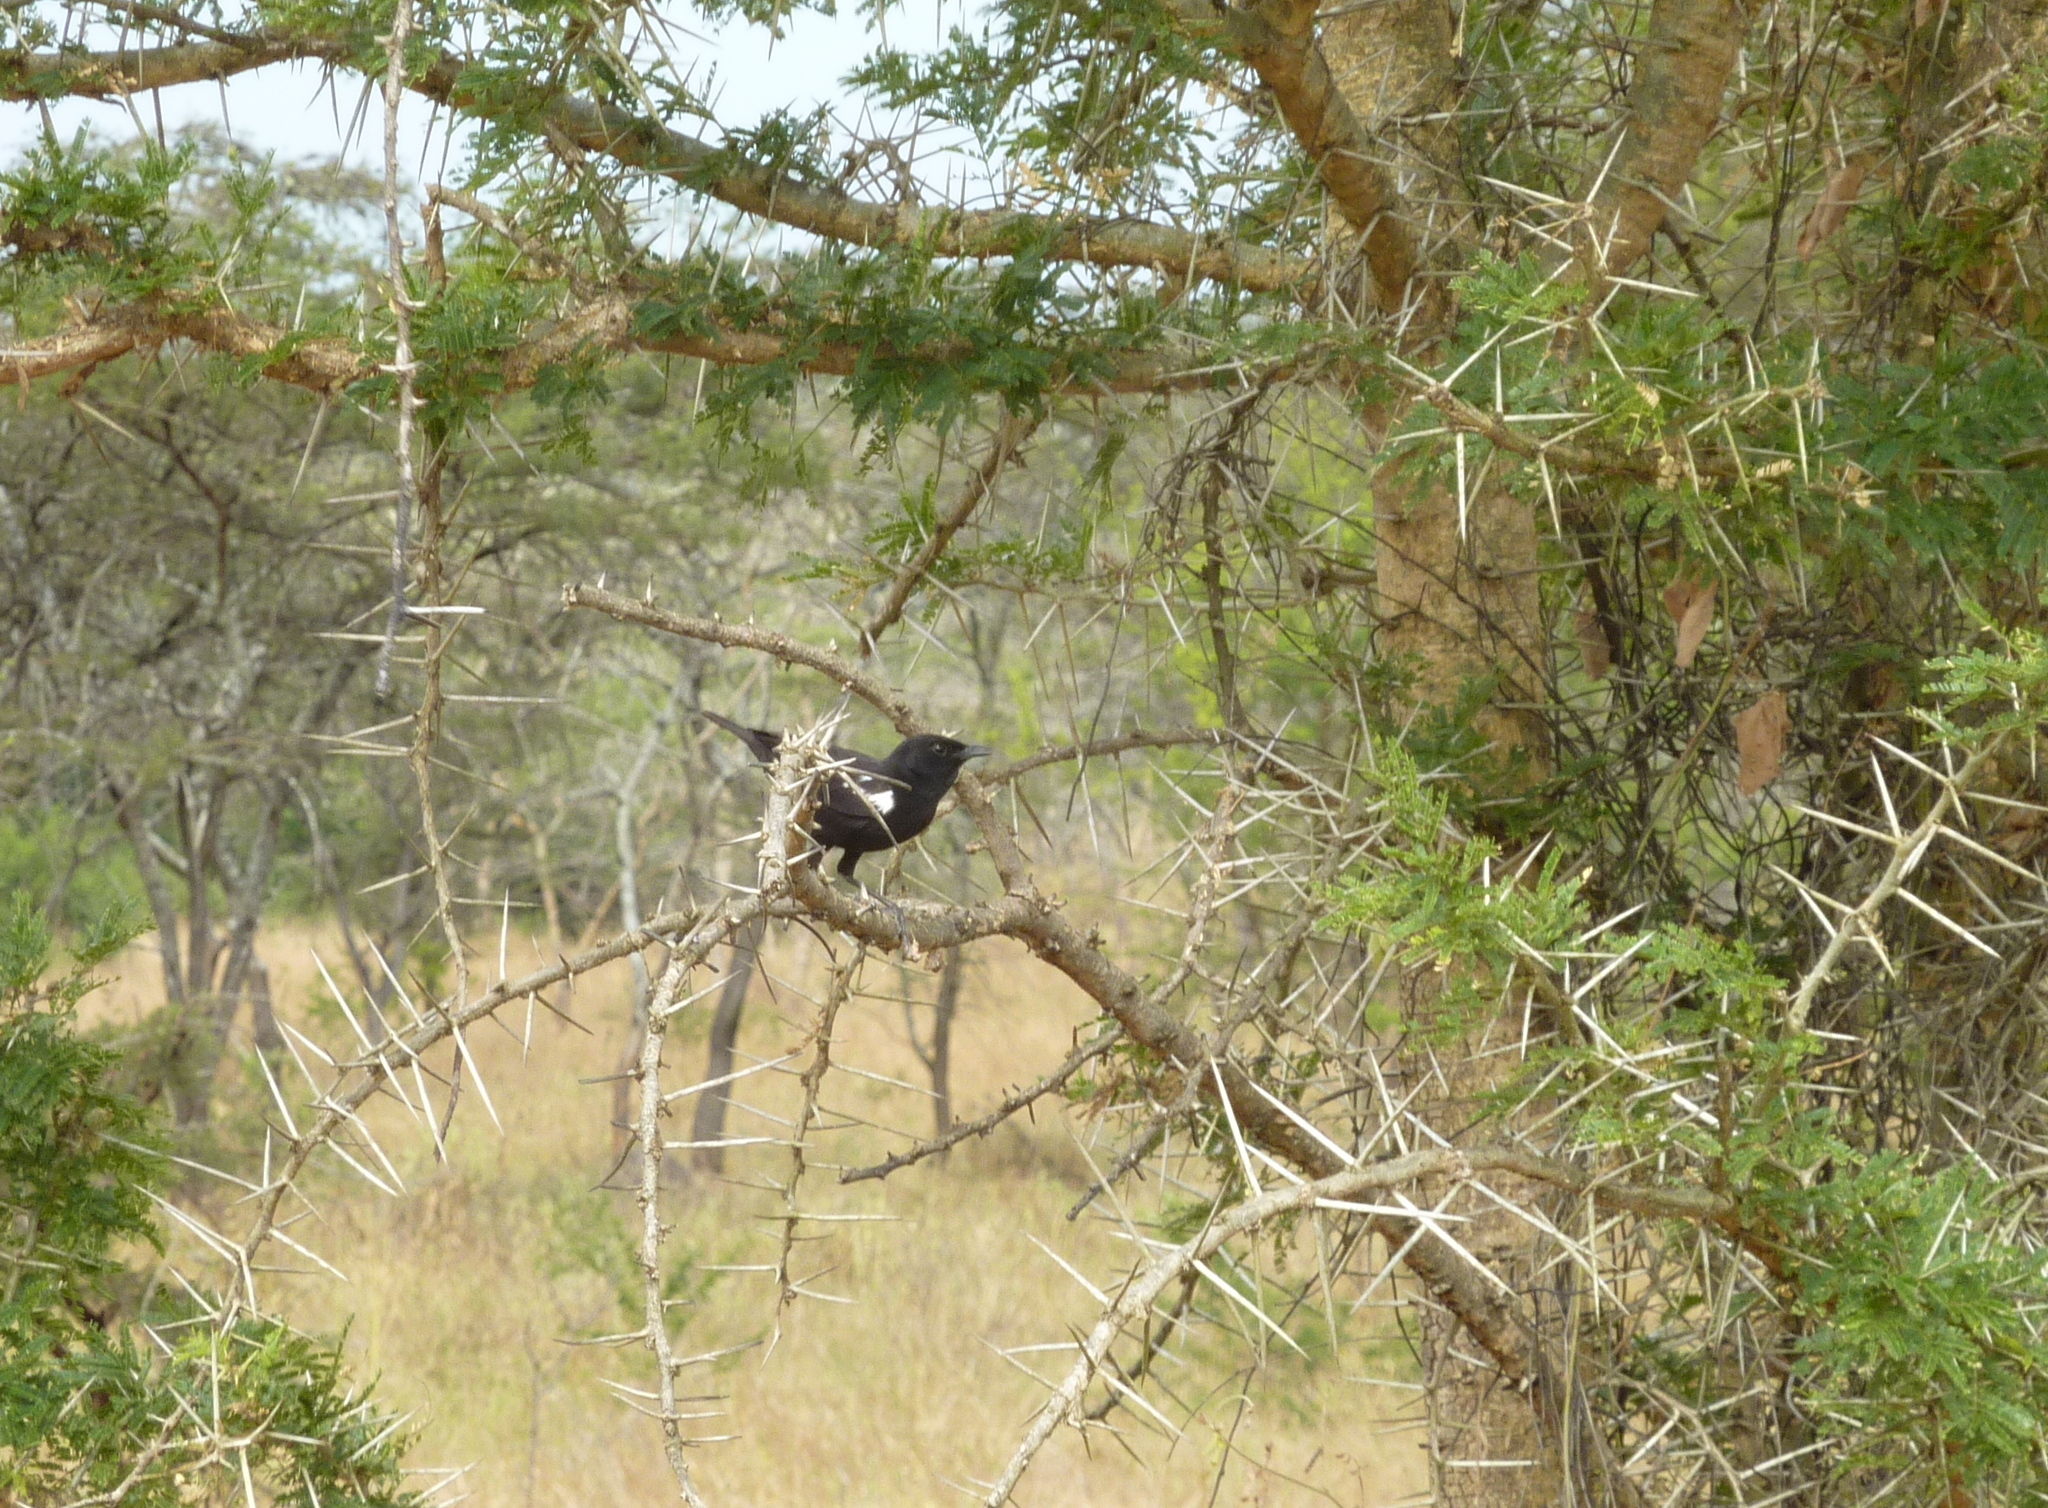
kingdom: Animalia
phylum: Chordata
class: Aves
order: Passeriformes
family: Muscicapidae
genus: Myrmecocichla
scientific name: Myrmecocichla nigra
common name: Sooty chat
